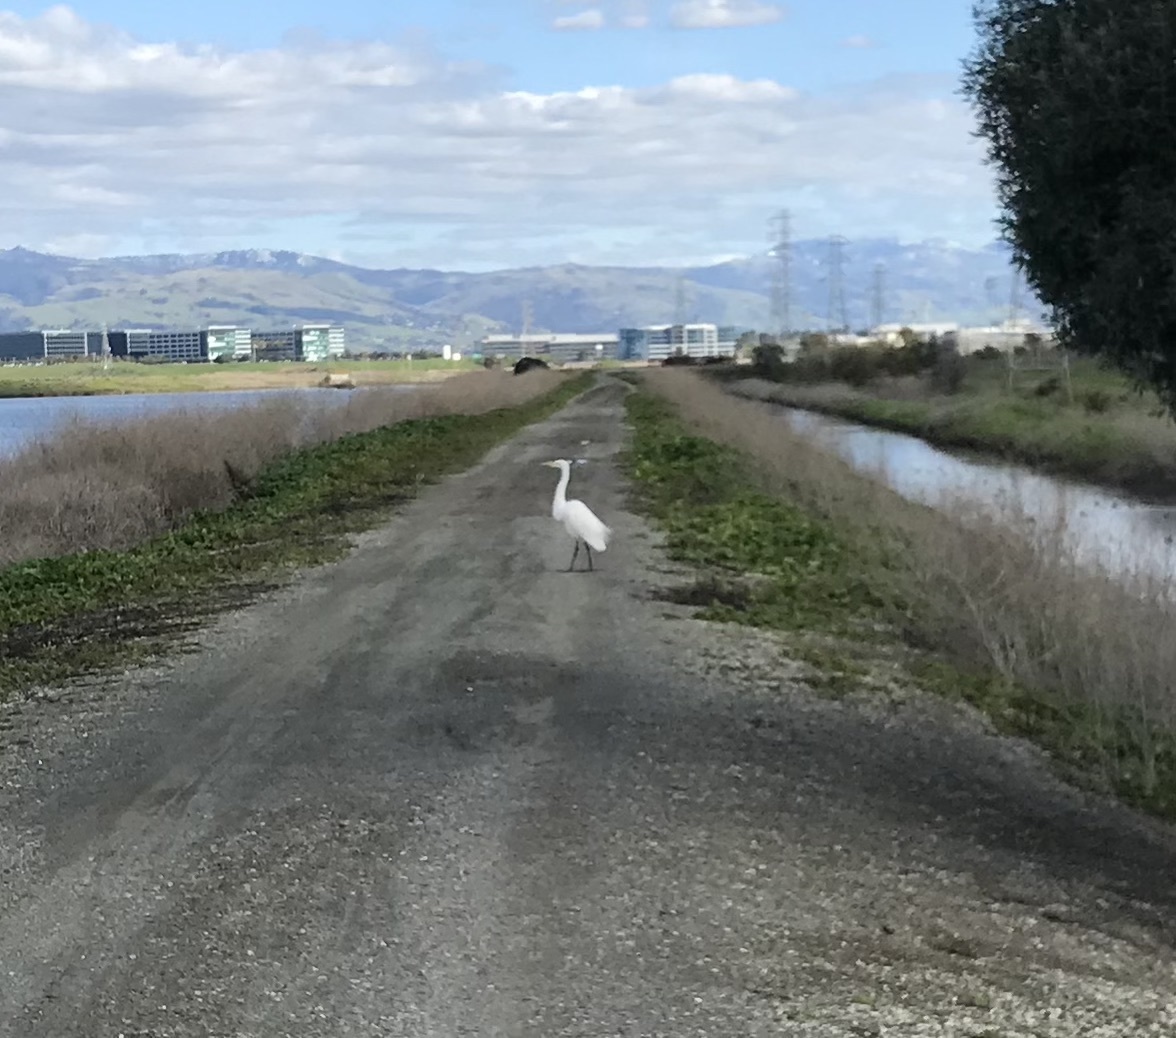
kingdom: Animalia
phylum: Chordata
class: Aves
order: Pelecaniformes
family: Ardeidae
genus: Ardea
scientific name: Ardea alba
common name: Great egret
